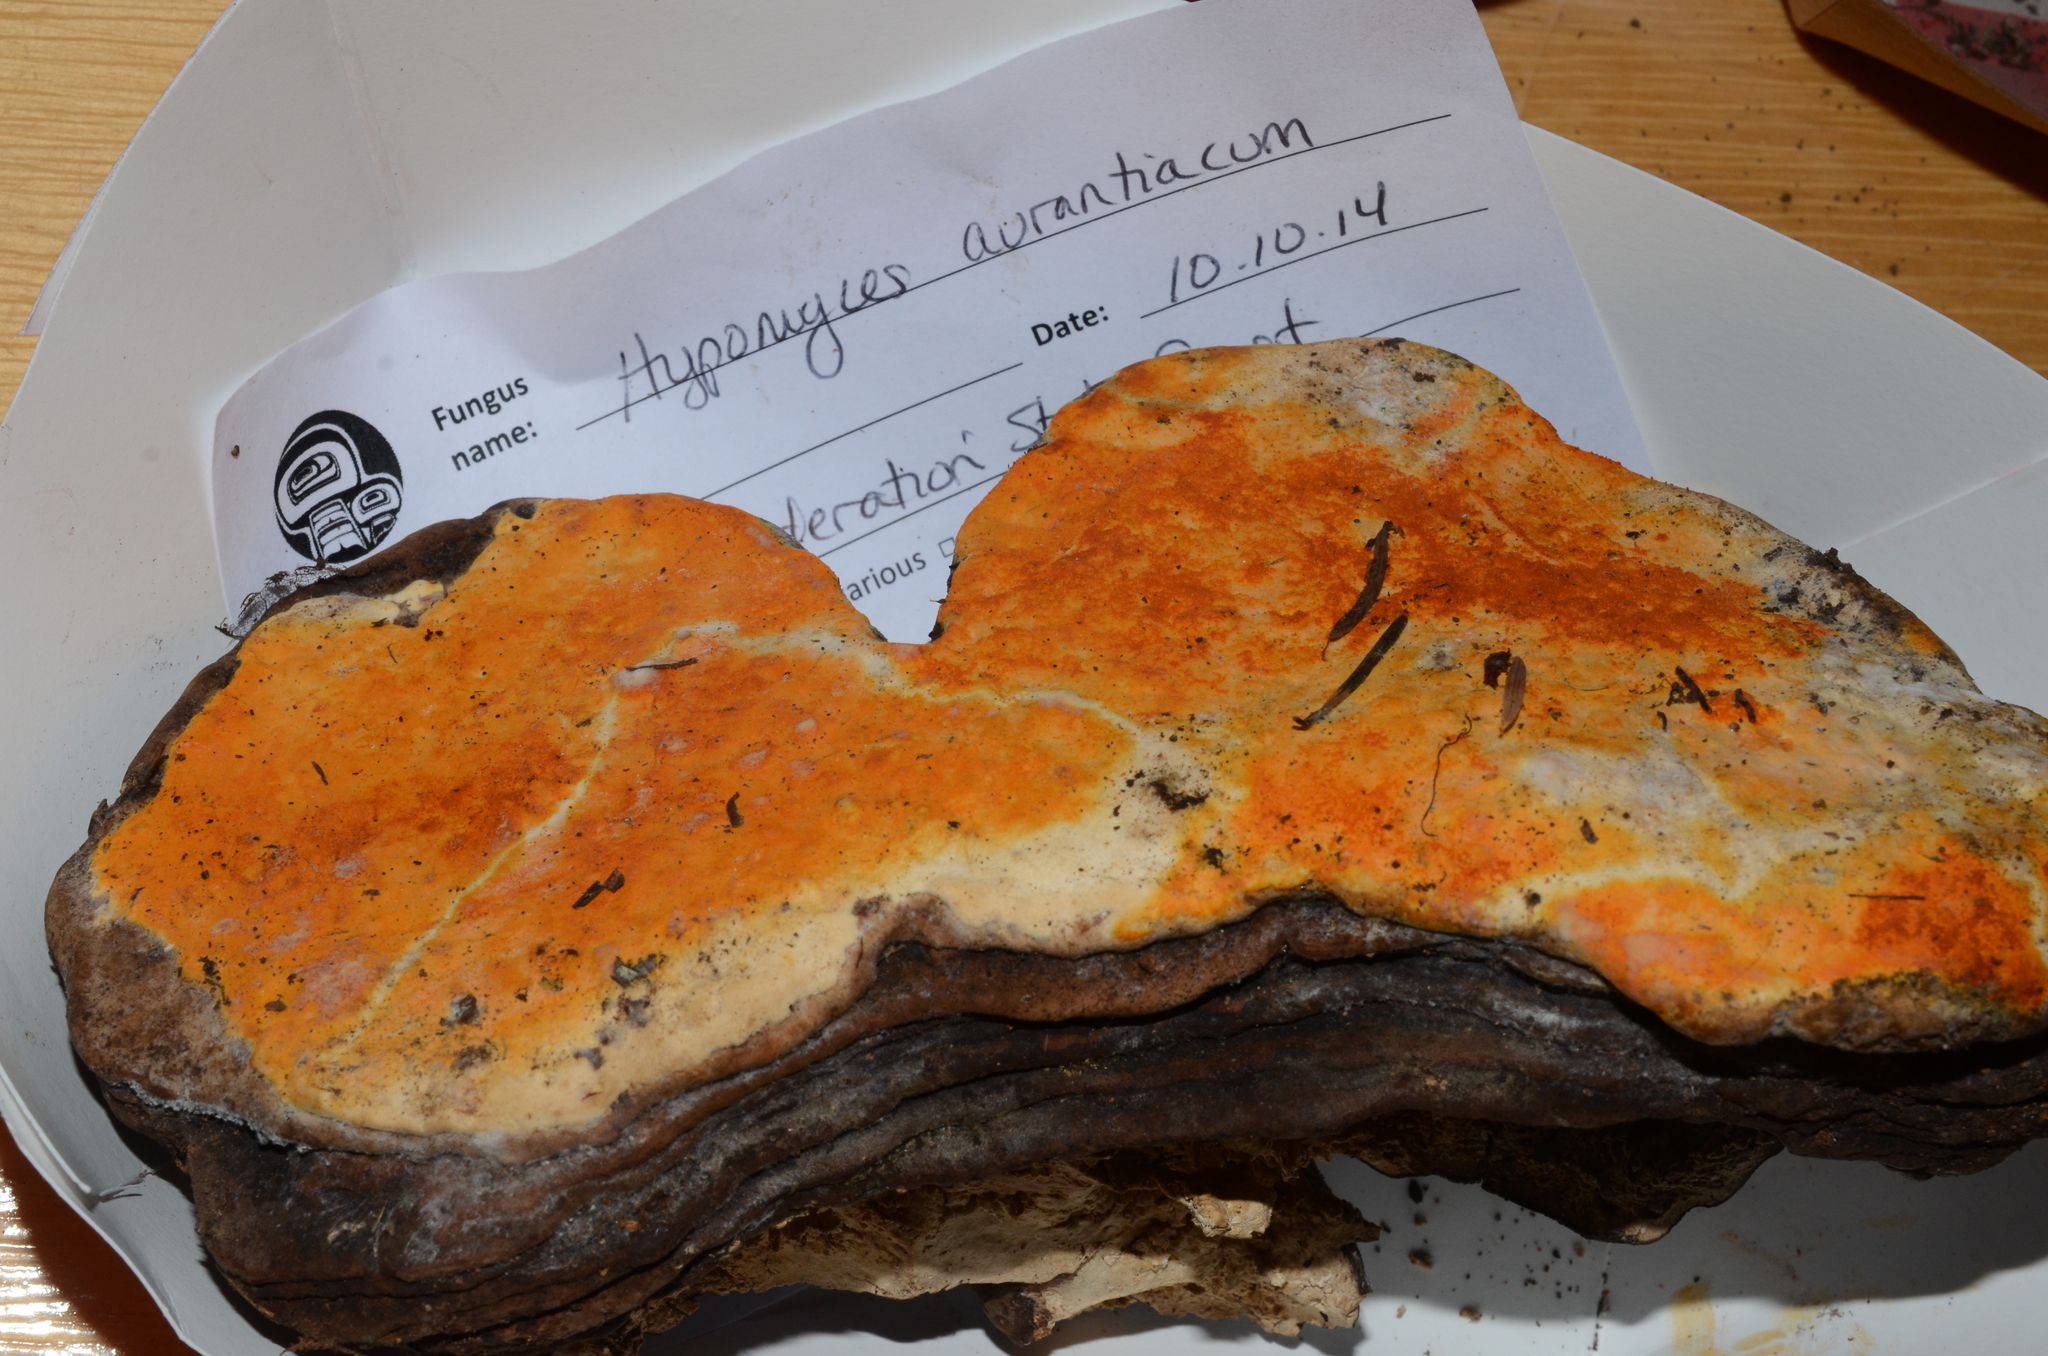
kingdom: Fungi
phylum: Ascomycota
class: Sordariomycetes
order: Hypocreales
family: Hypocreaceae
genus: Hypomyces
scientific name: Hypomyces aurantius
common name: Orange polypore mould
